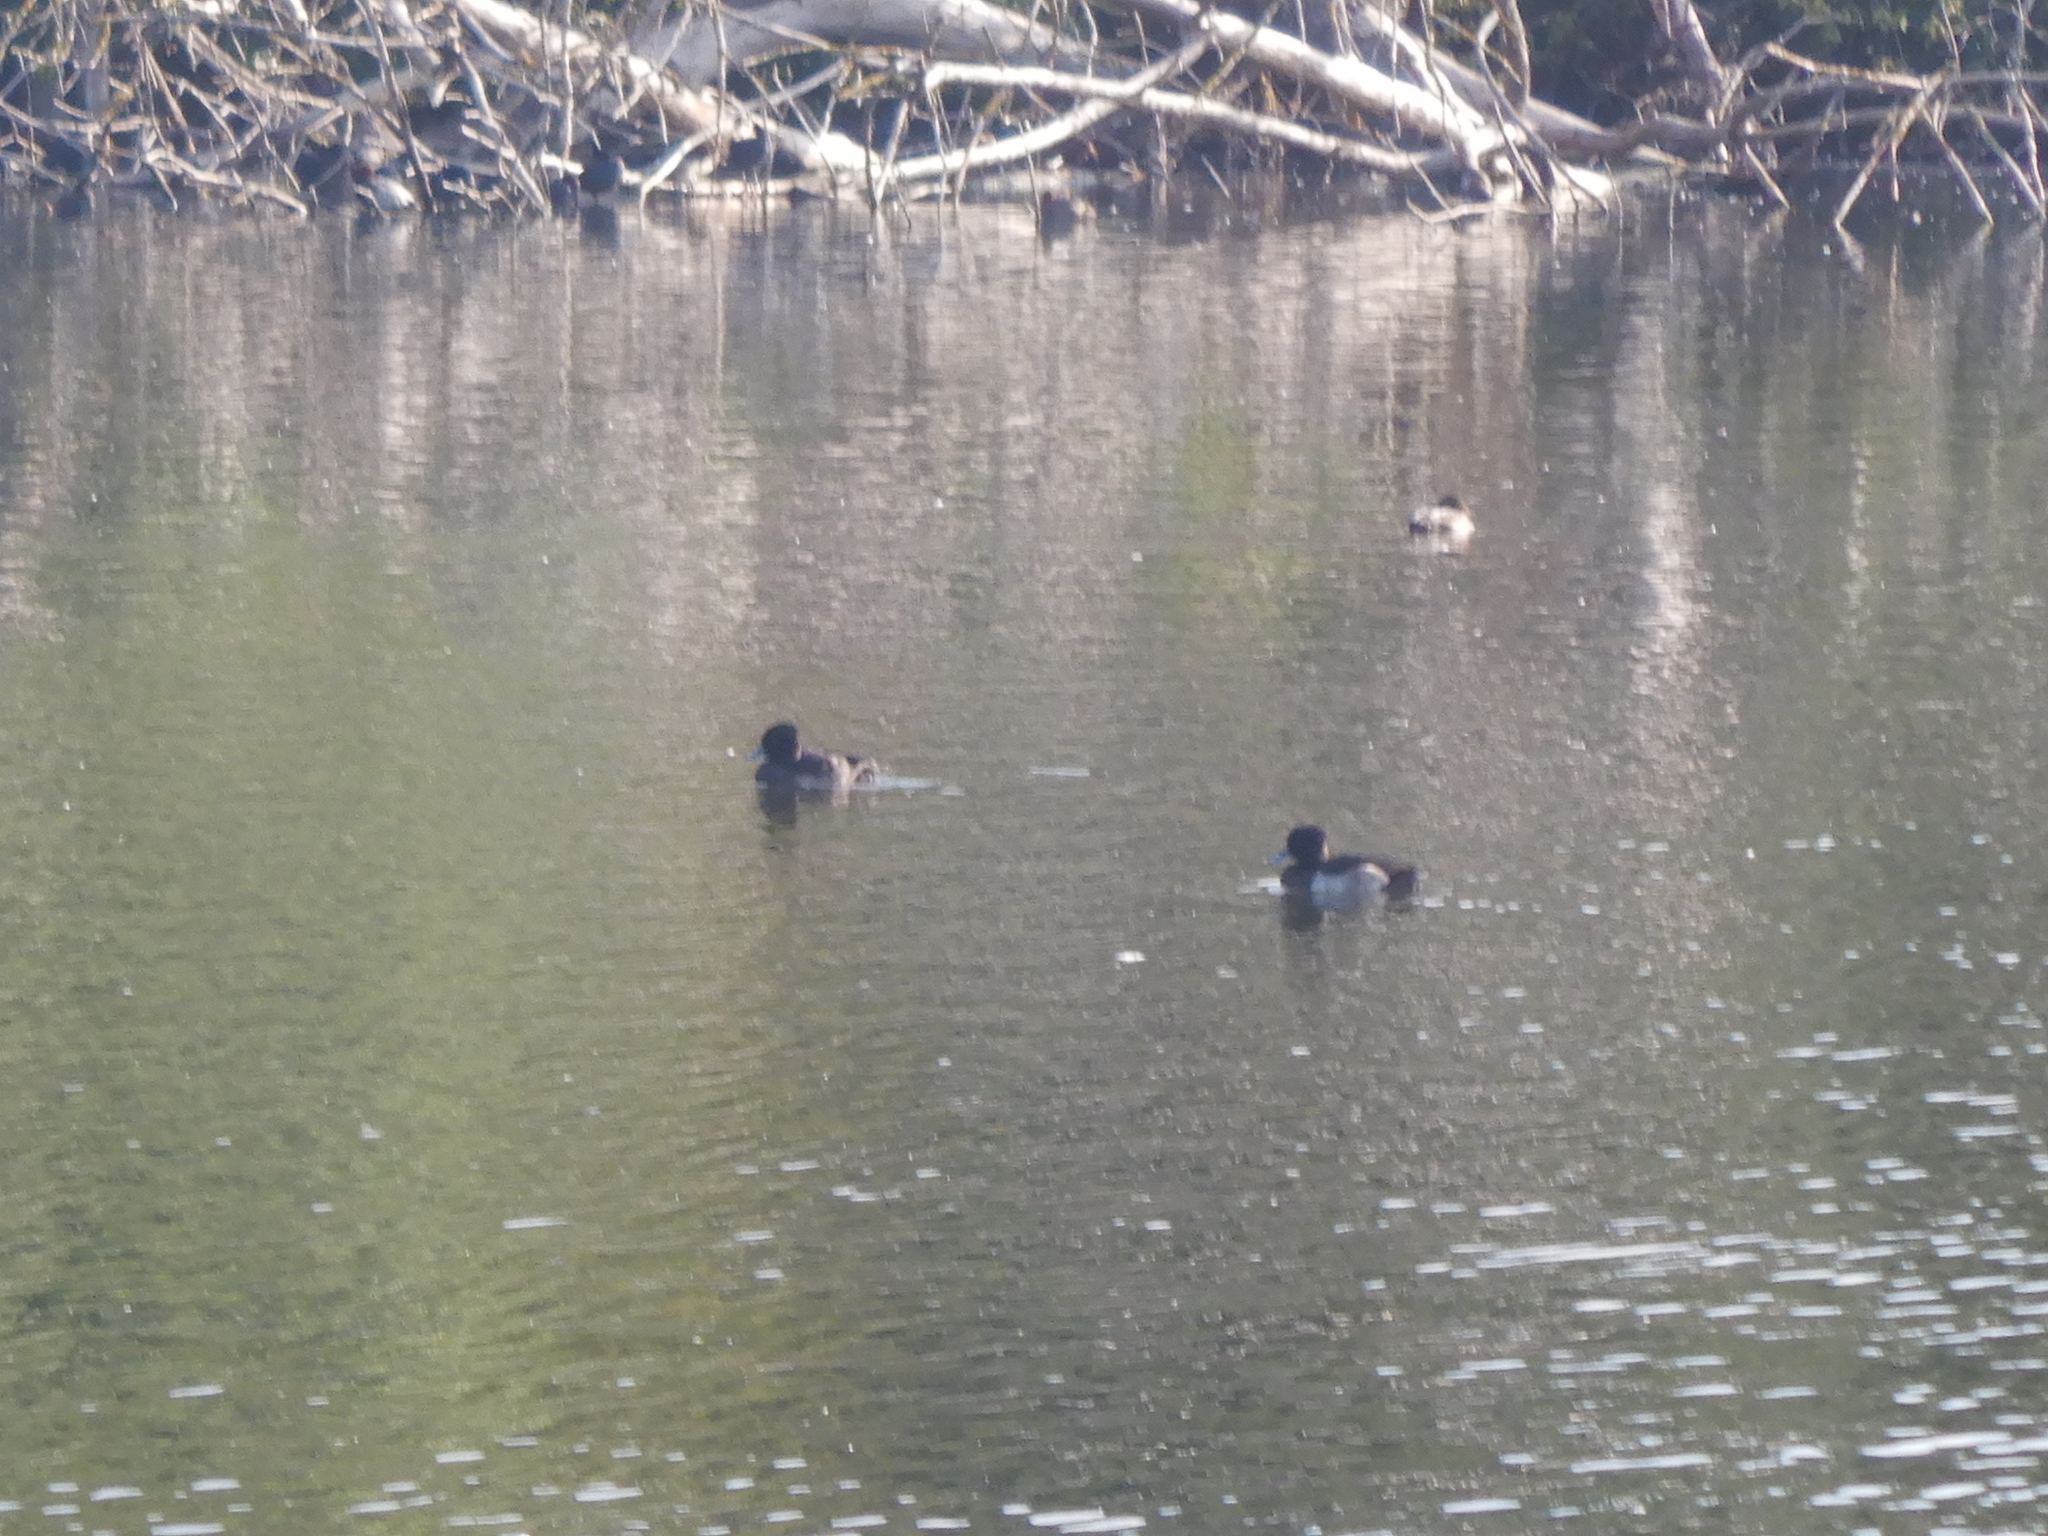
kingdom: Animalia
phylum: Chordata
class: Aves
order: Anseriformes
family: Anatidae
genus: Aythya
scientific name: Aythya fuligula
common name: Tufted duck
